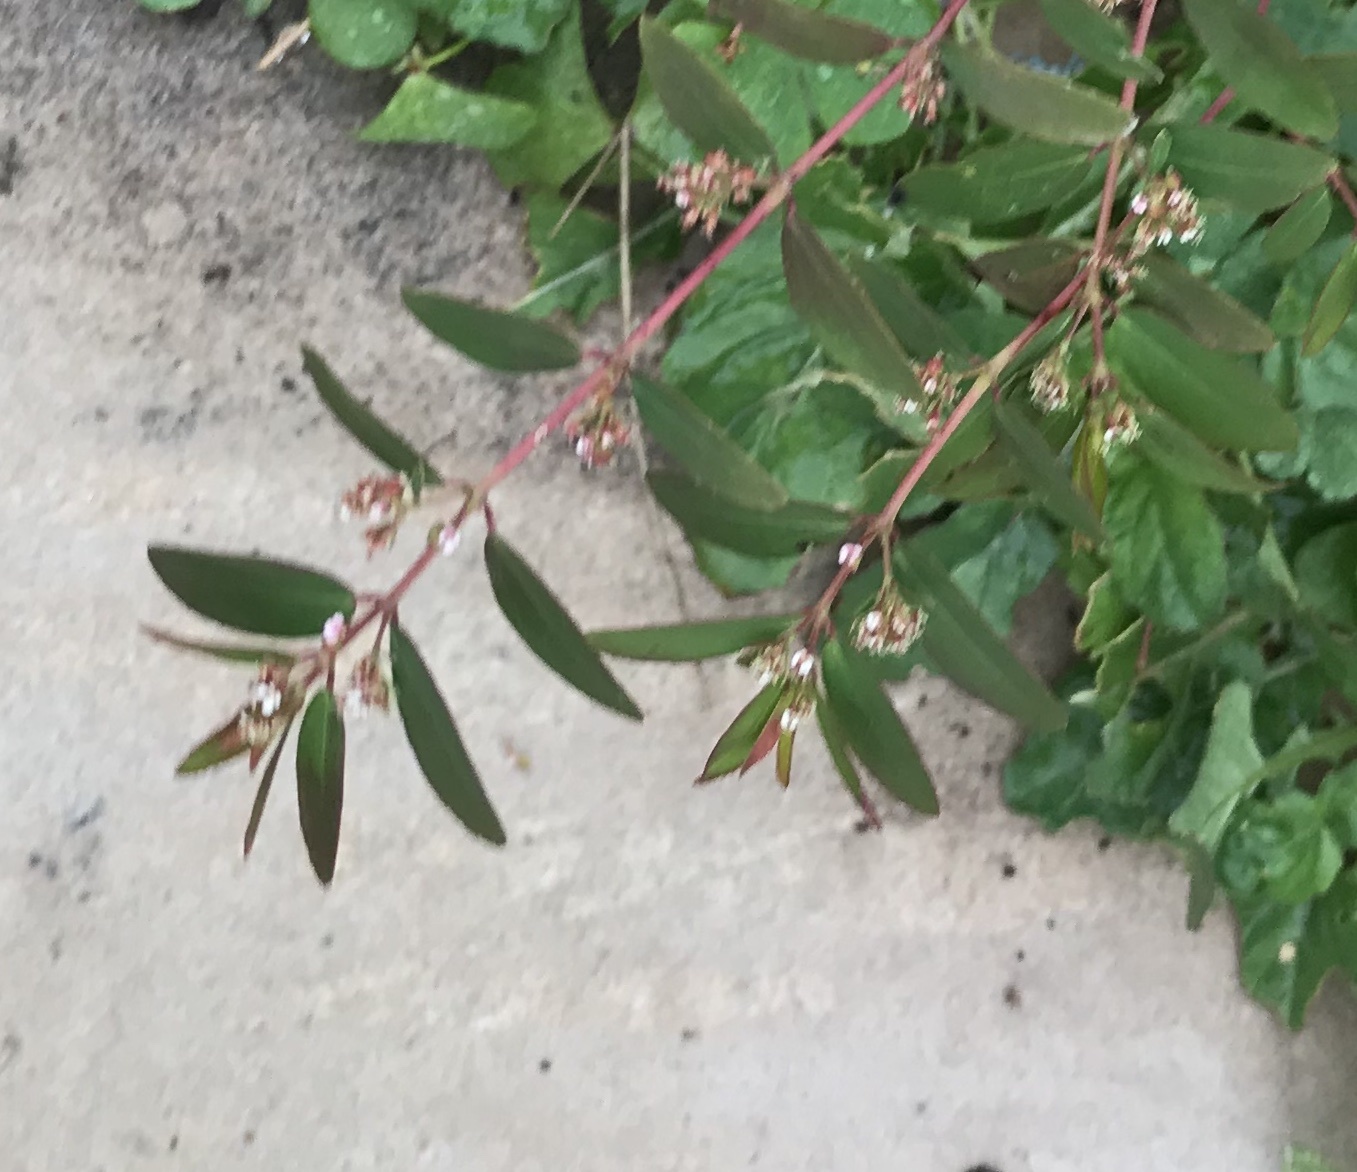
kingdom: Plantae
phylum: Tracheophyta
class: Magnoliopsida
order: Malpighiales
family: Euphorbiaceae
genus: Euphorbia
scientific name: Euphorbia hypericifolia
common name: Graceful sandmat
